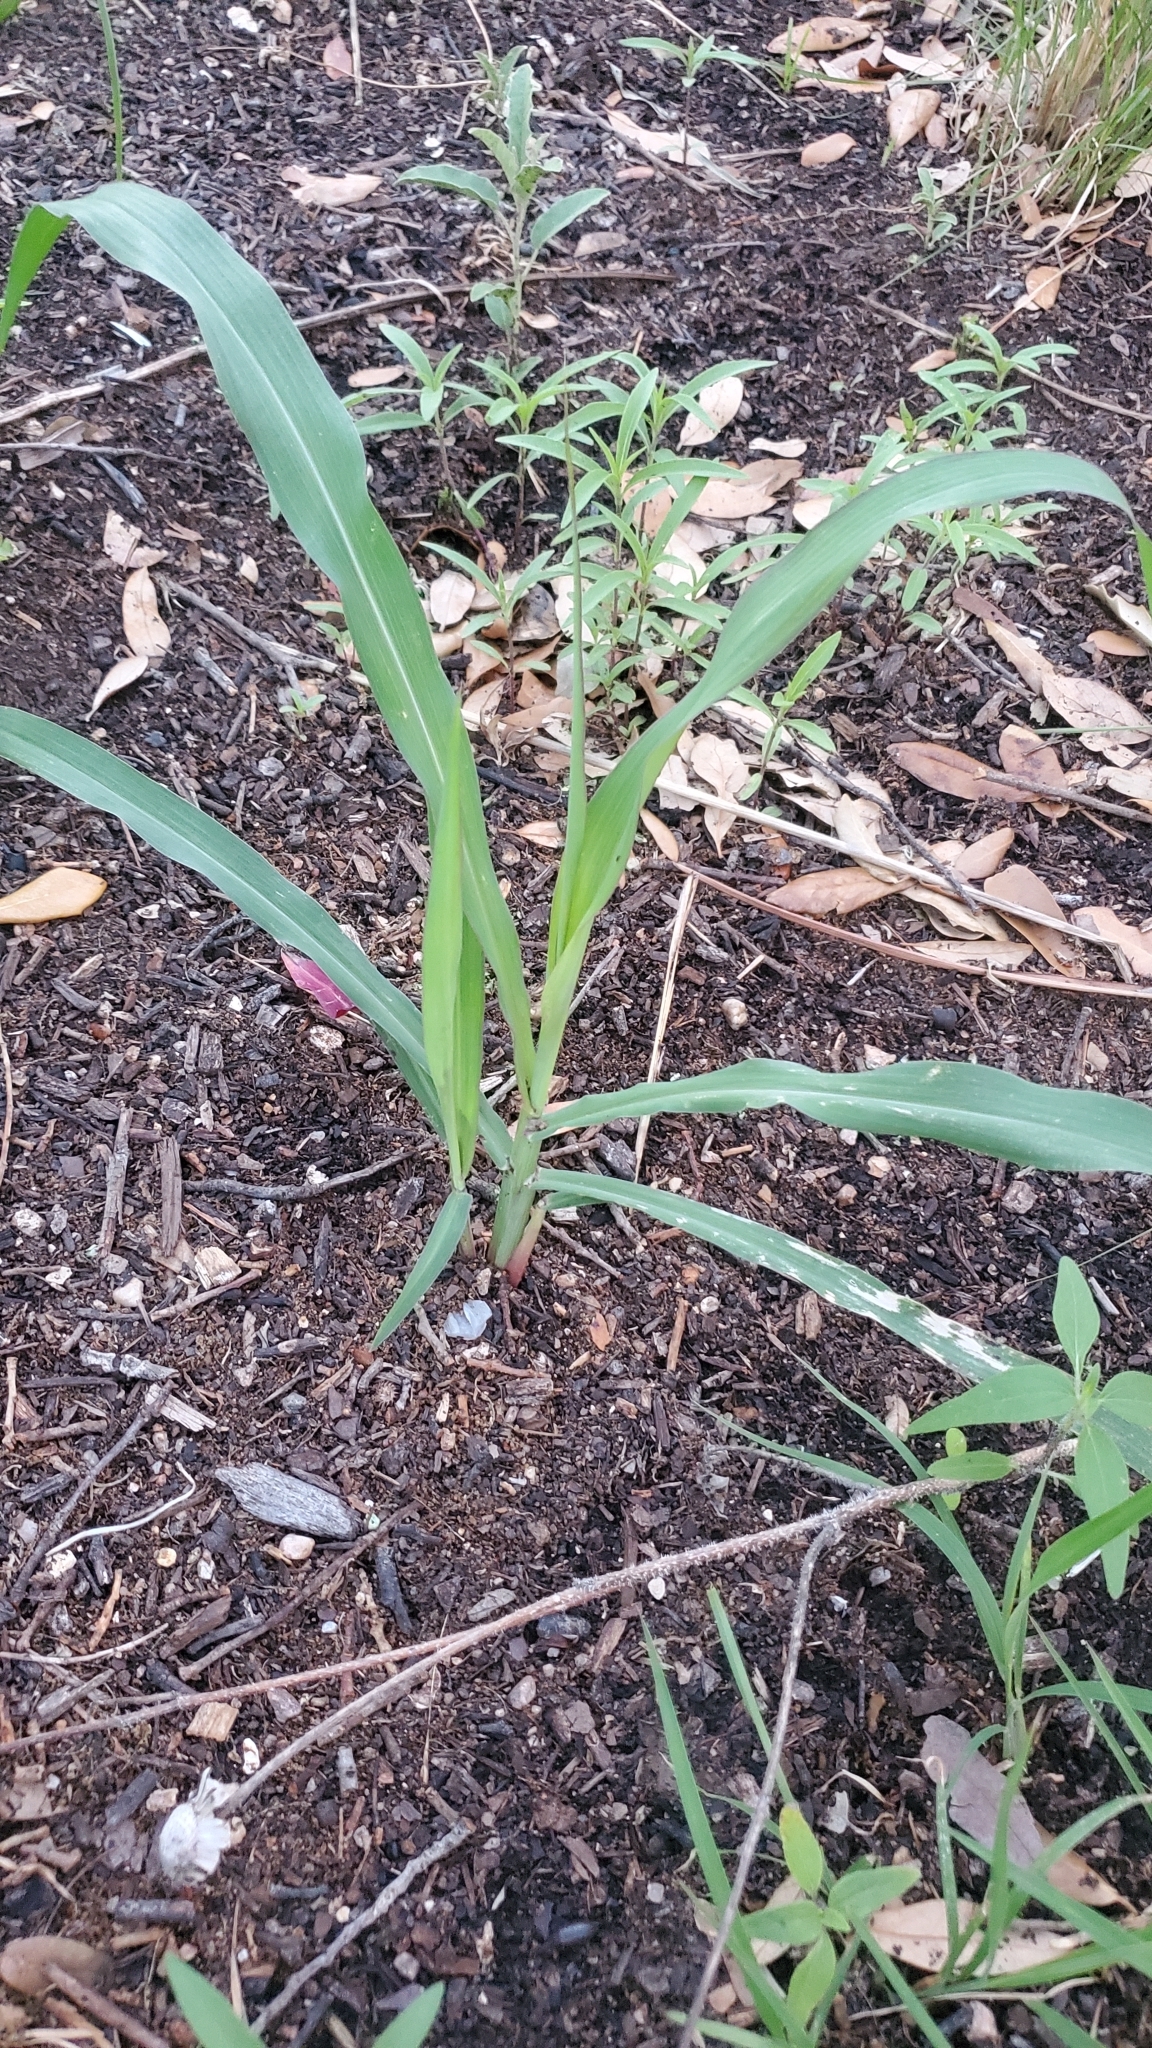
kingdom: Plantae
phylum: Tracheophyta
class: Liliopsida
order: Poales
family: Poaceae
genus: Sorghum
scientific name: Sorghum halepense
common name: Johnson-grass
